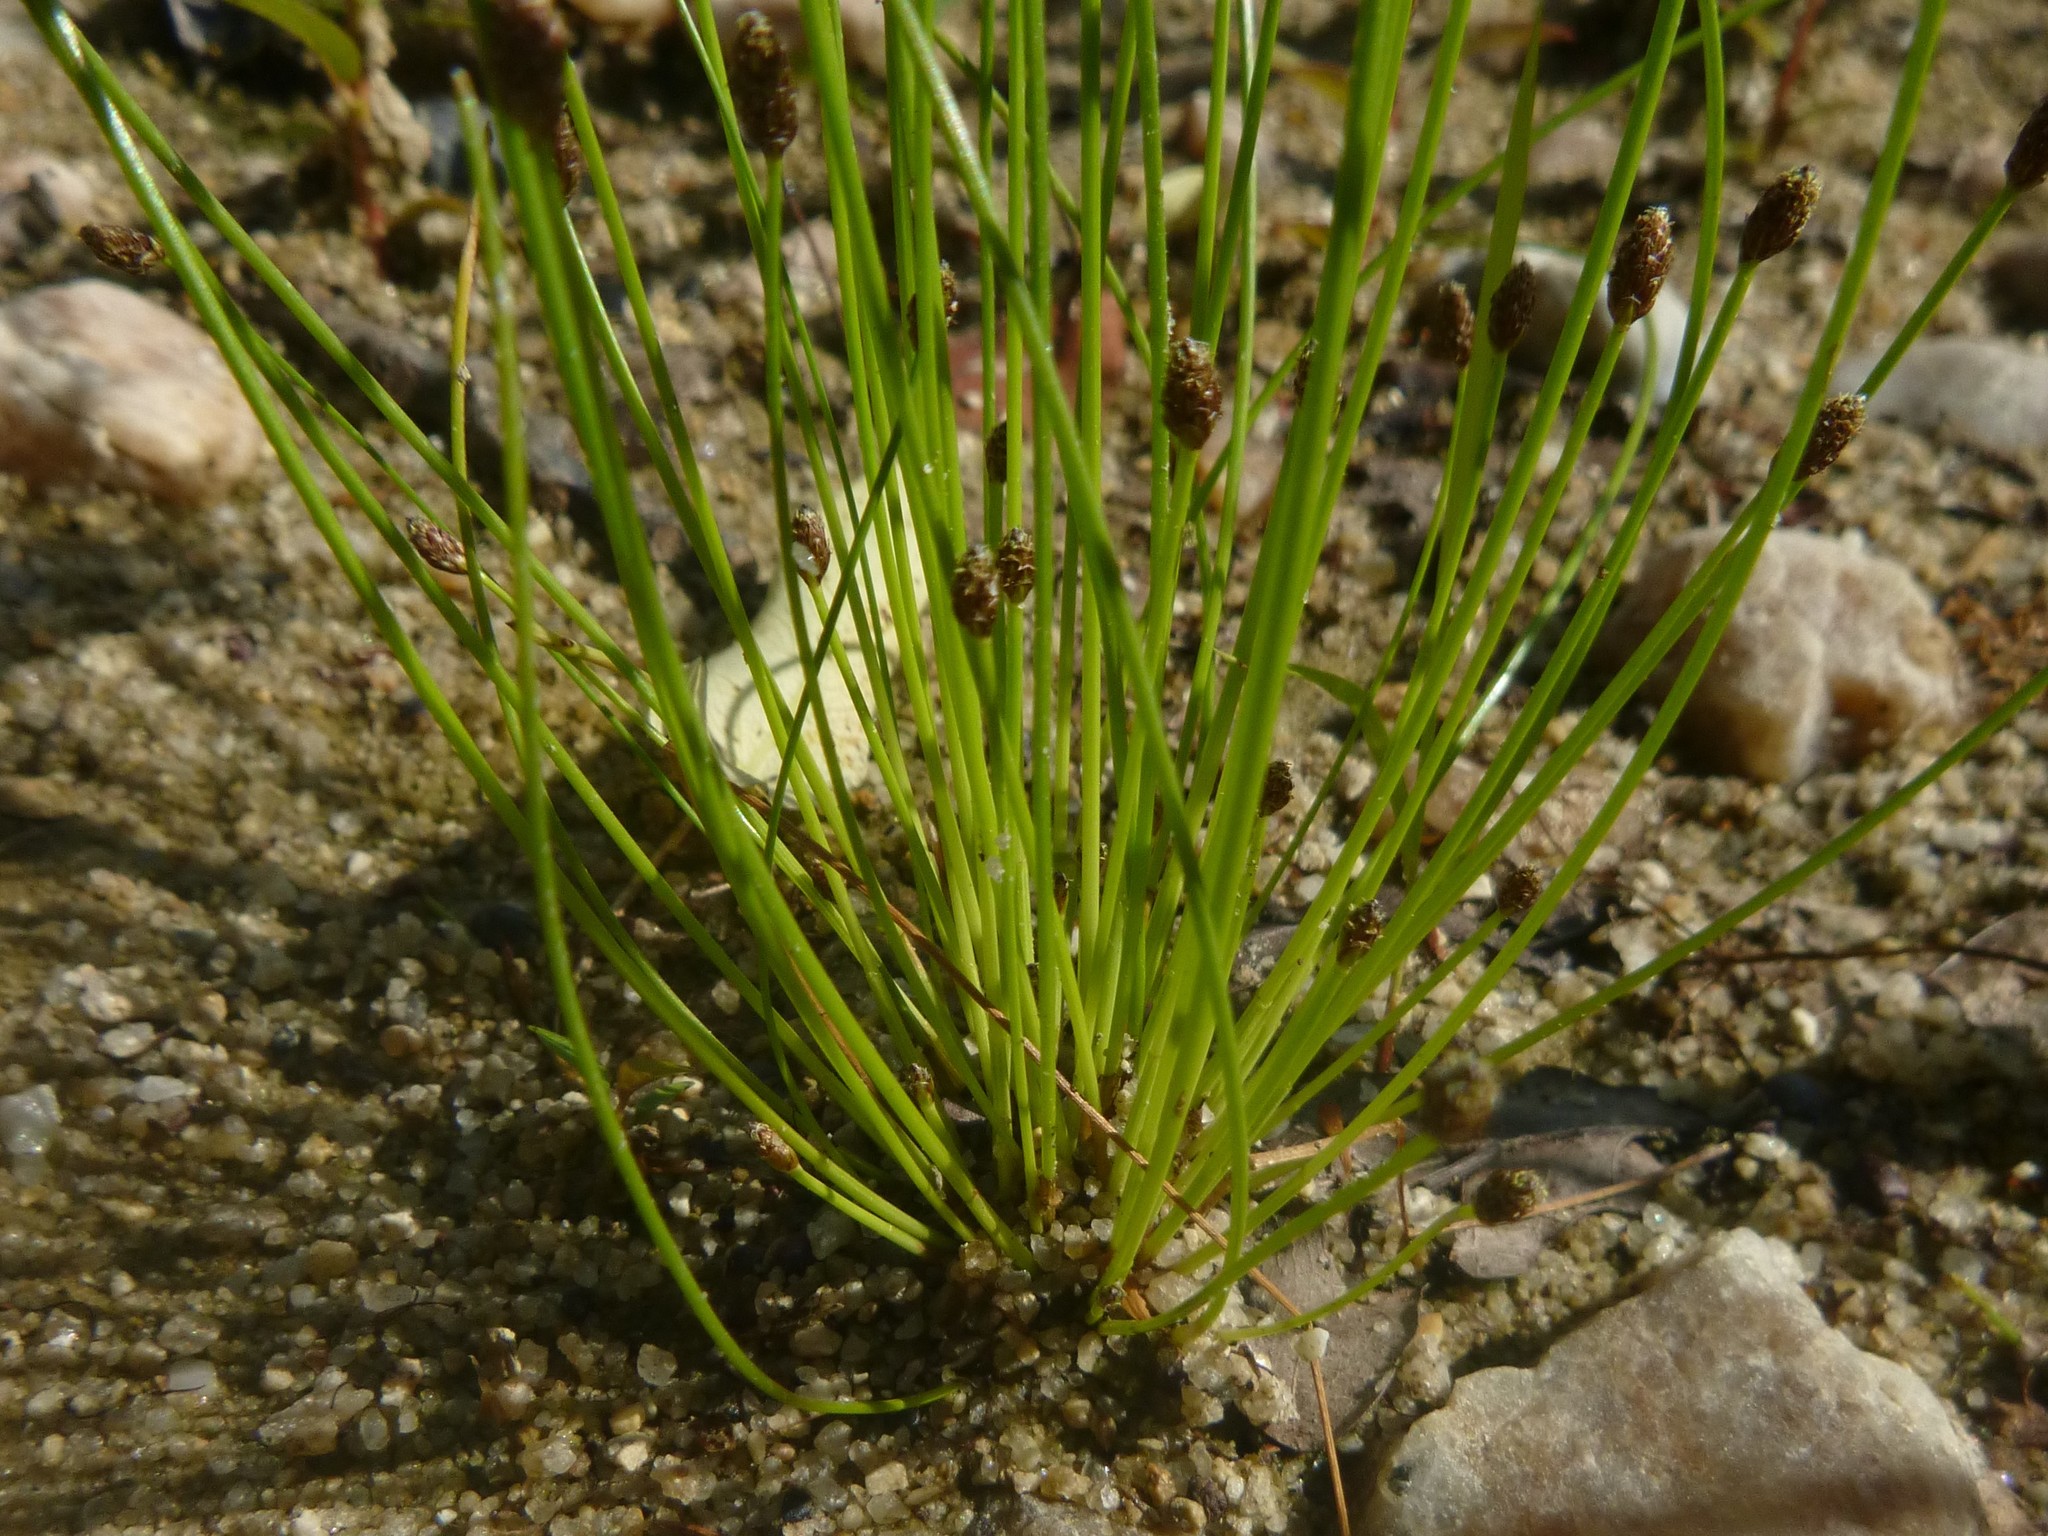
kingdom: Plantae
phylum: Tracheophyta
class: Liliopsida
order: Poales
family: Cyperaceae
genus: Eleocharis
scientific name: Eleocharis ovata
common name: Oval spike-rush
